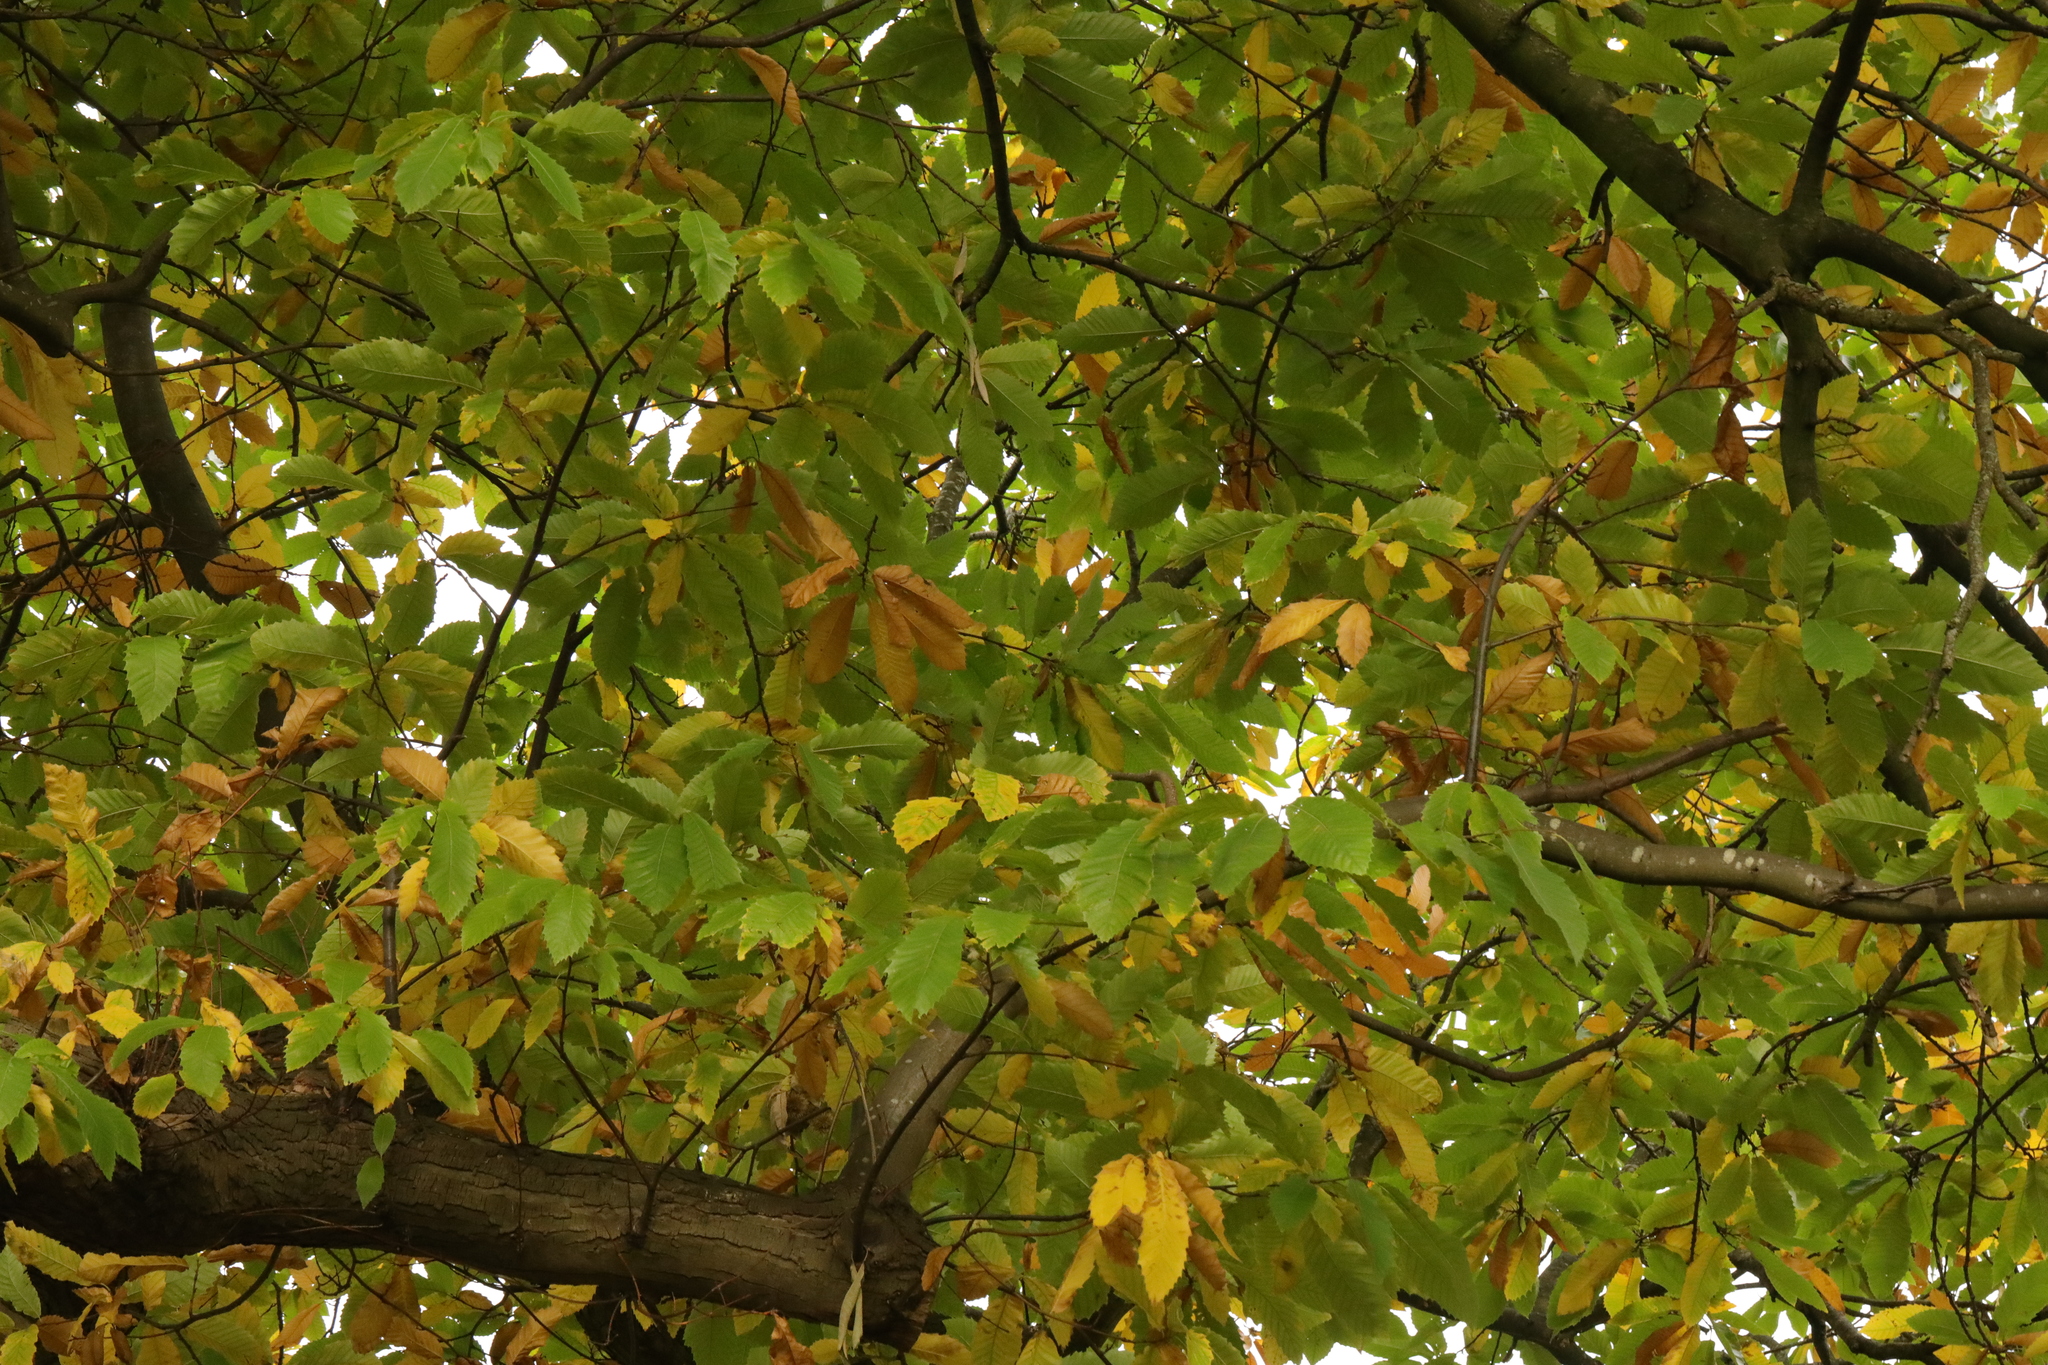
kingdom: Plantae
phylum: Tracheophyta
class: Magnoliopsida
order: Fagales
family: Fagaceae
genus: Castanea
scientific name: Castanea sativa
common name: Sweet chestnut
